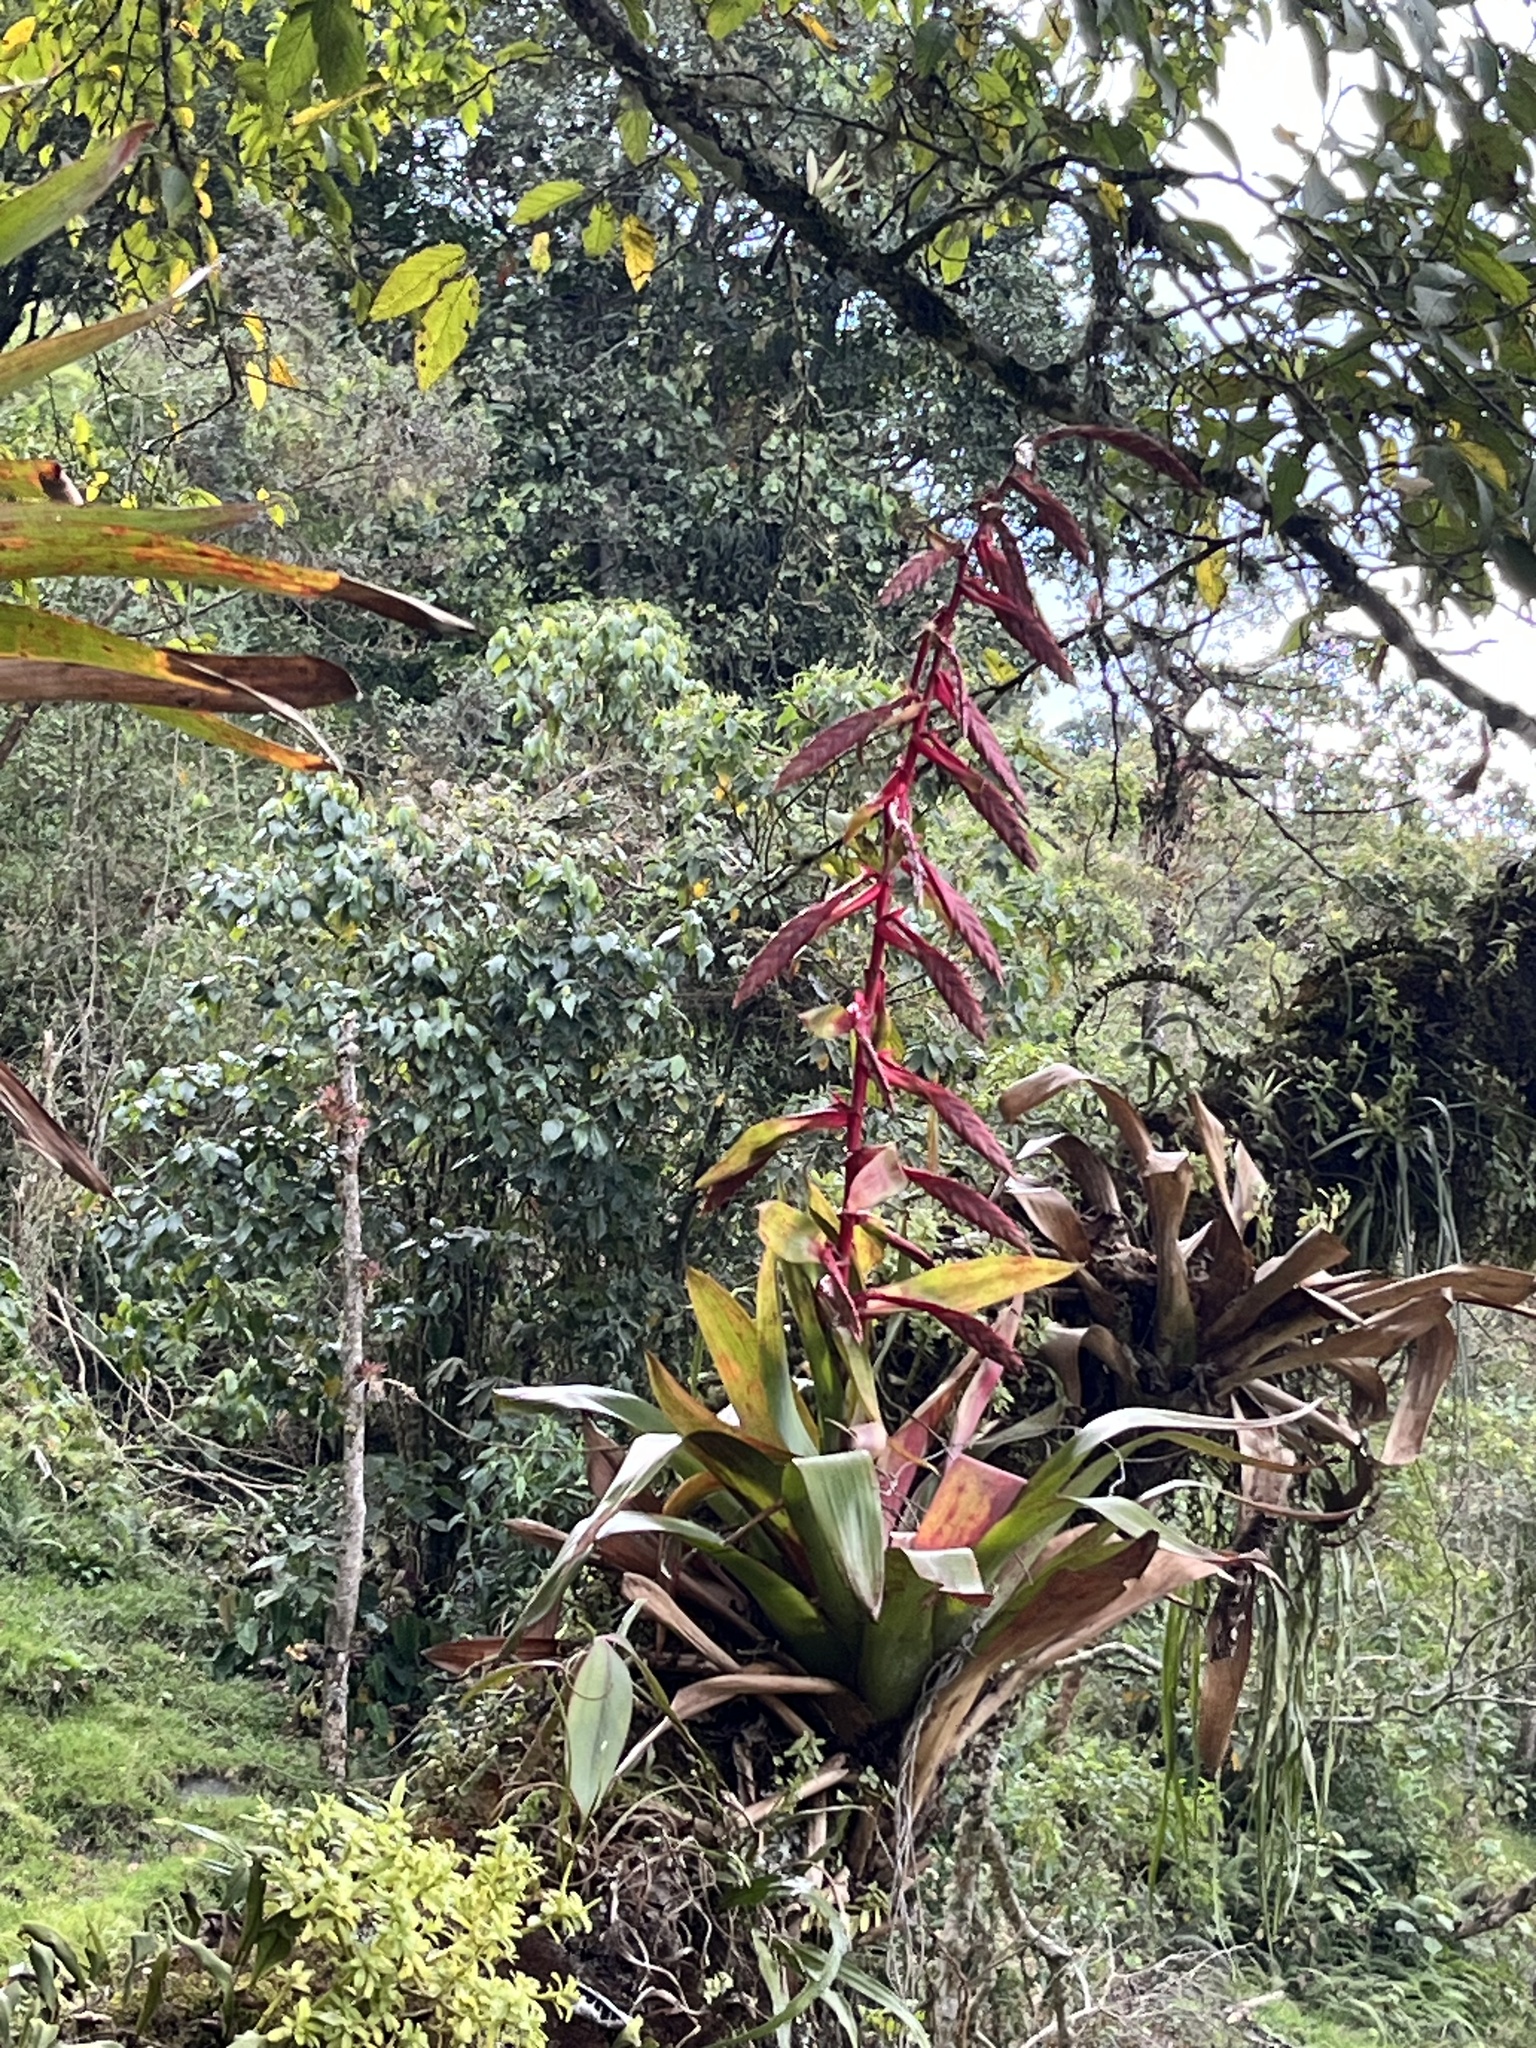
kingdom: Plantae
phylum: Tracheophyta
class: Liliopsida
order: Poales
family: Bromeliaceae
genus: Tillandsia
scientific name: Tillandsia fendleri
